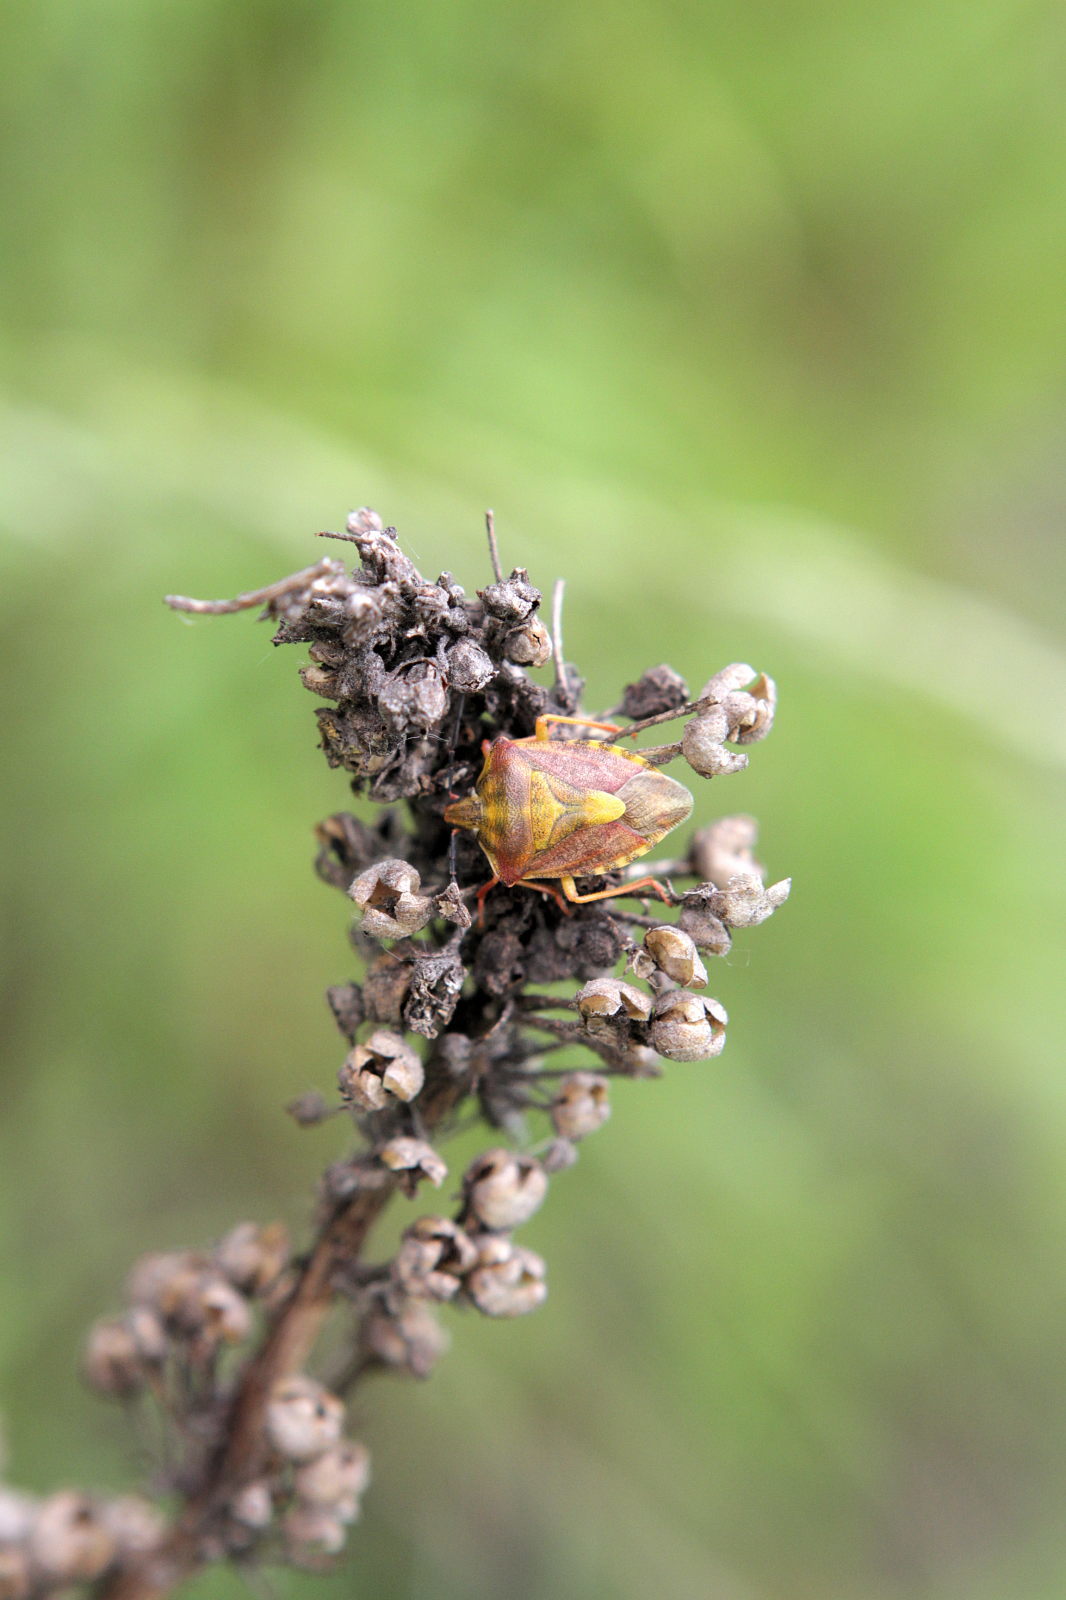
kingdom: Animalia
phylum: Arthropoda
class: Insecta
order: Hemiptera
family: Pentatomidae
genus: Carpocoris
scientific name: Carpocoris purpureipennis
